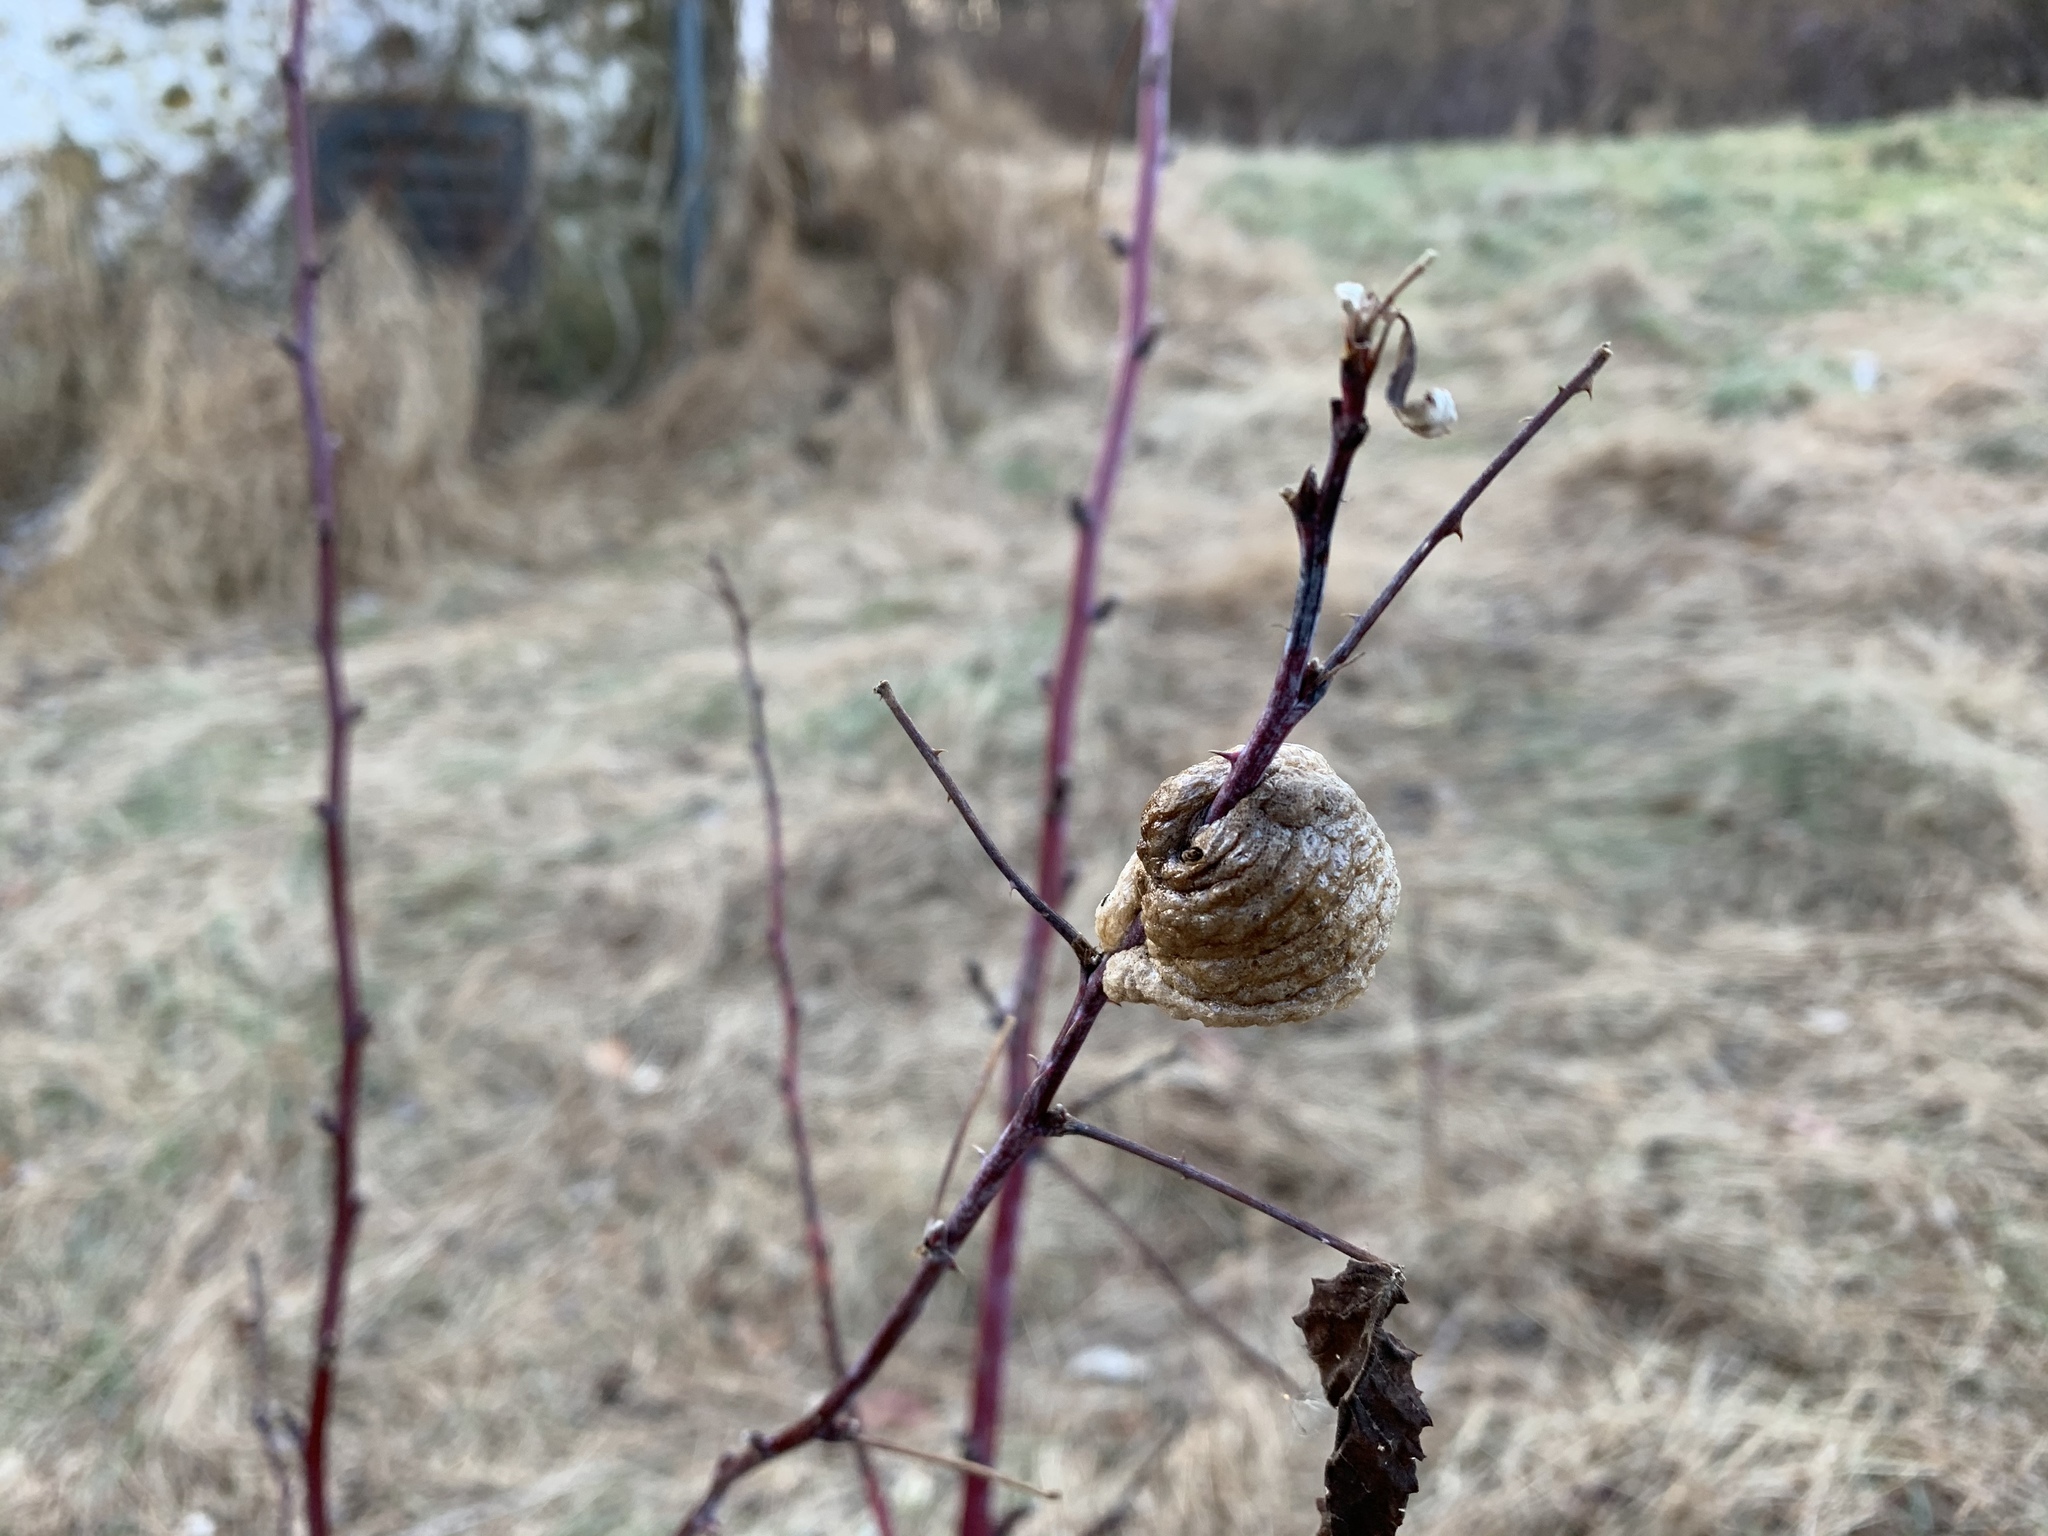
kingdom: Animalia
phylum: Arthropoda
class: Insecta
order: Mantodea
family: Mantidae
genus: Tenodera
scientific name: Tenodera sinensis
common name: Chinese mantis
